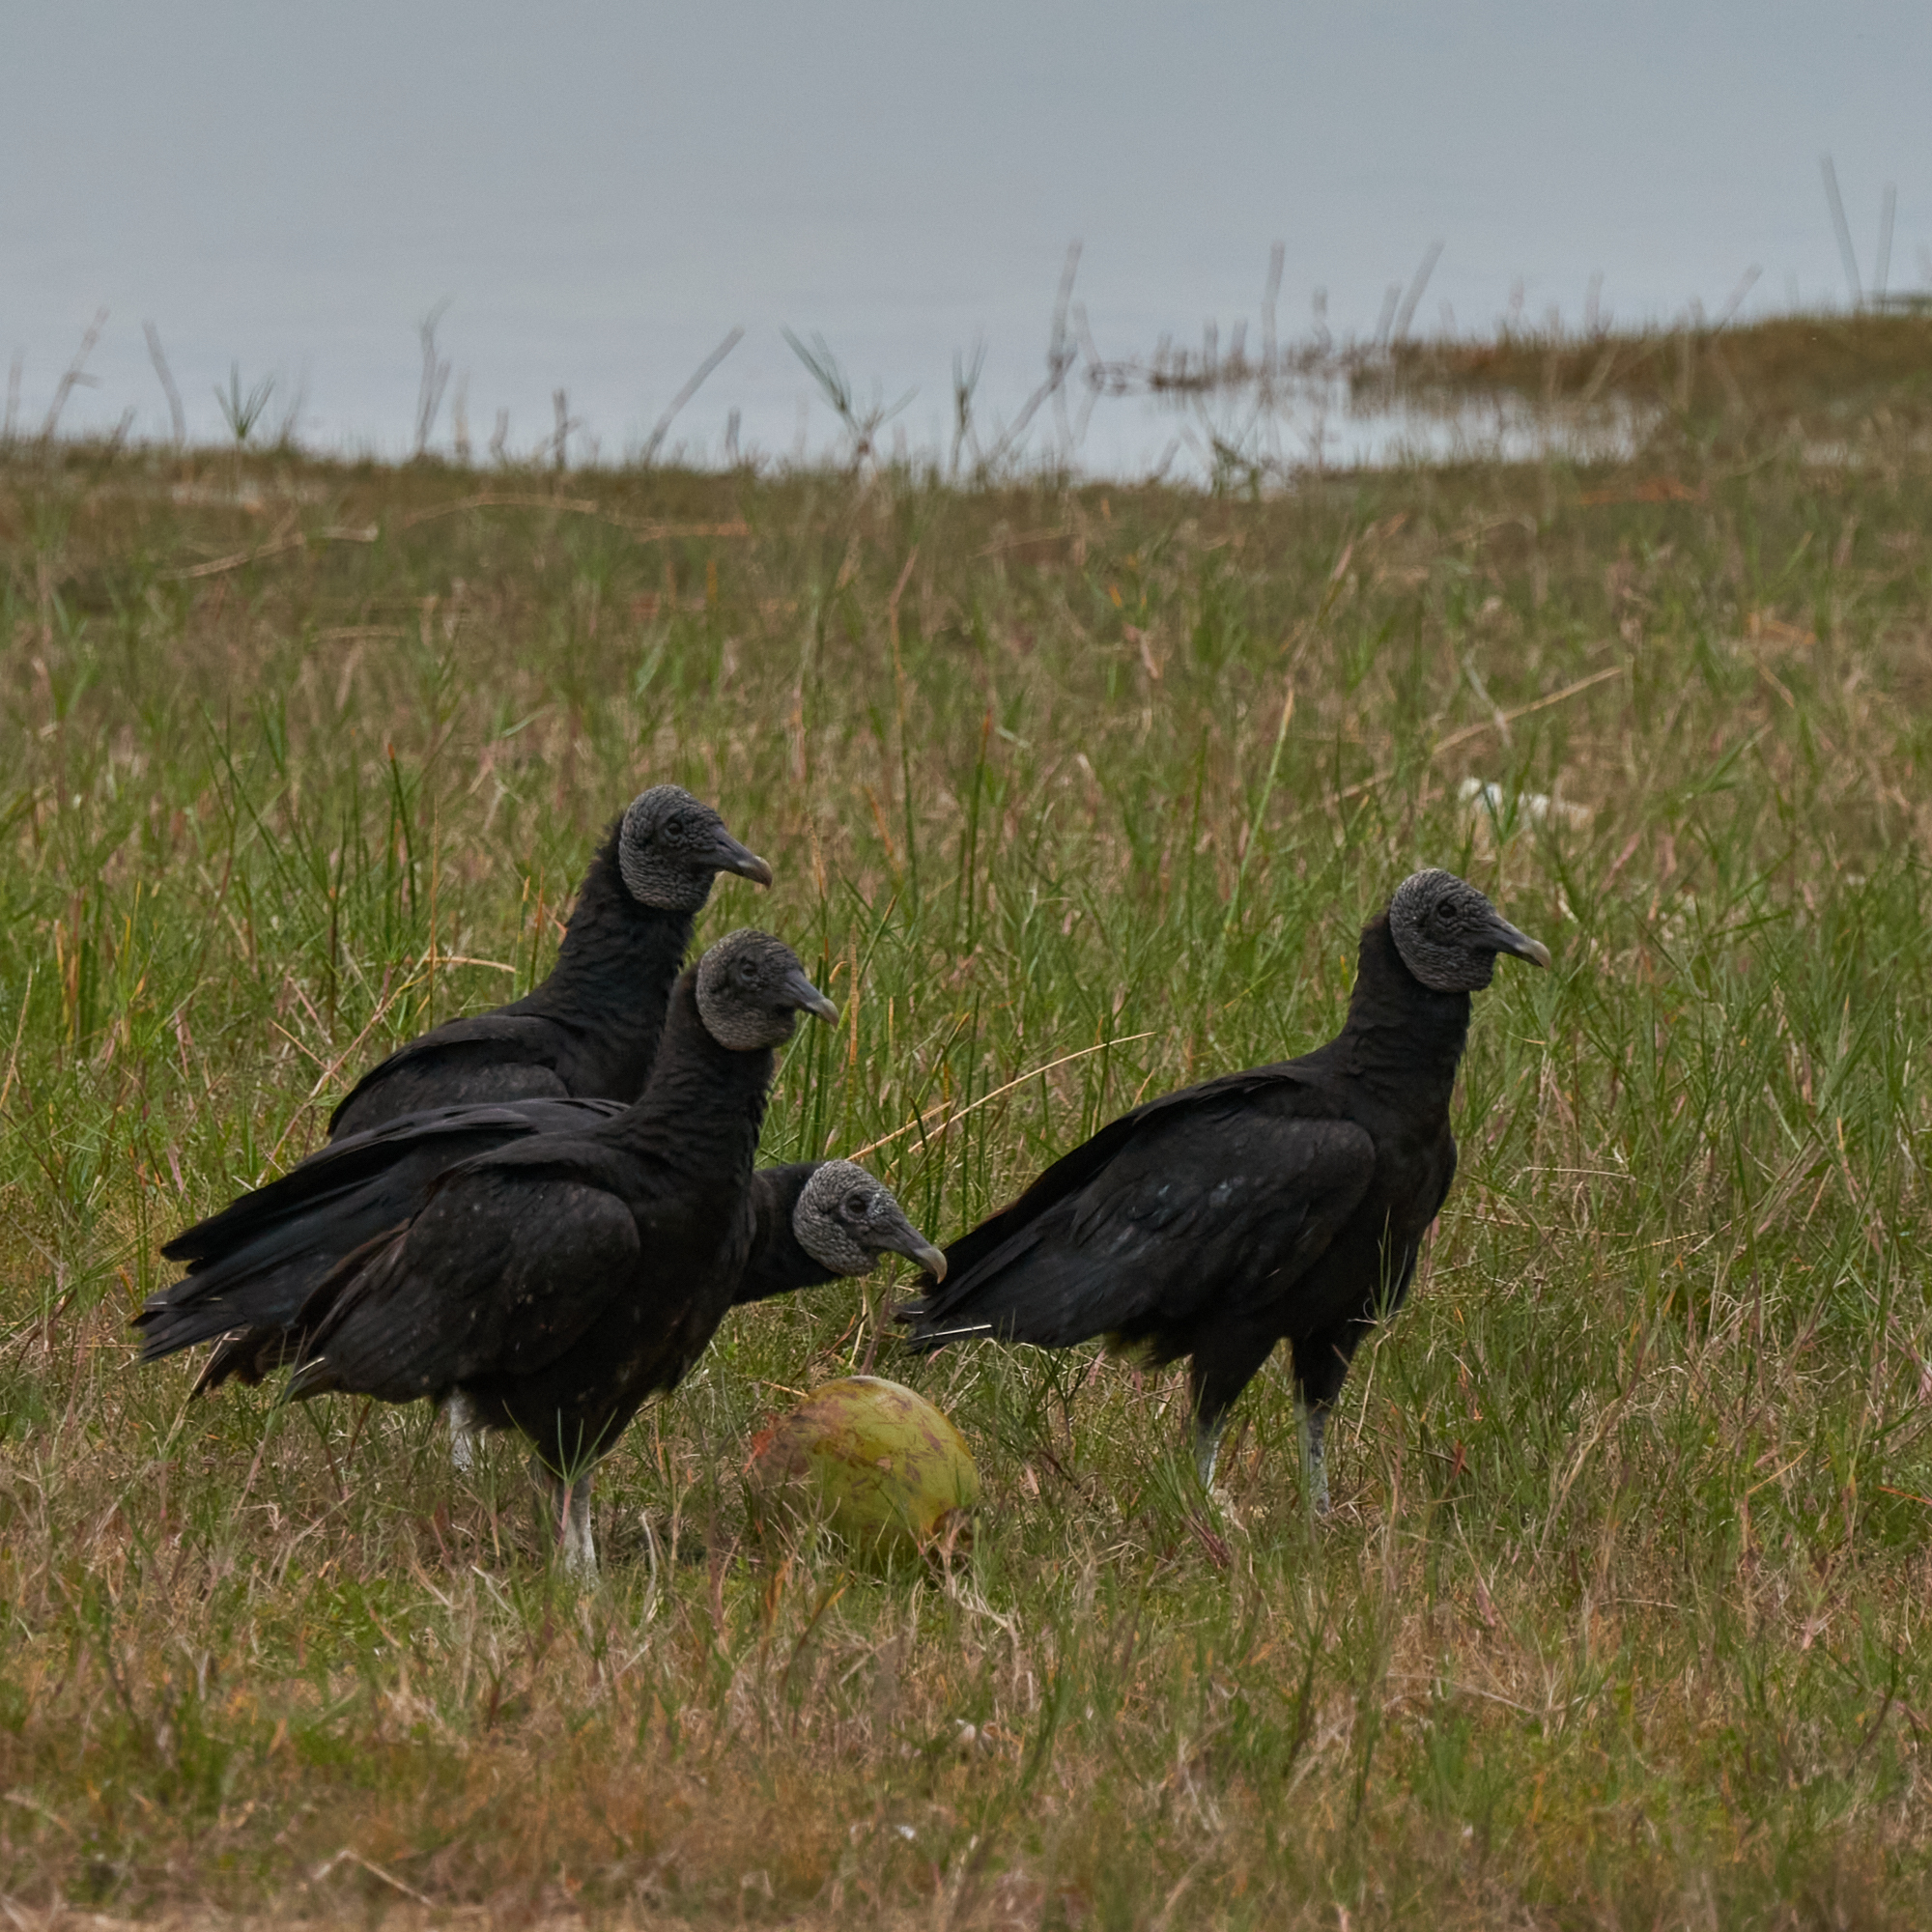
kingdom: Animalia
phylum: Chordata
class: Aves
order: Accipitriformes
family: Cathartidae
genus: Coragyps
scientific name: Coragyps atratus
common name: Black vulture
